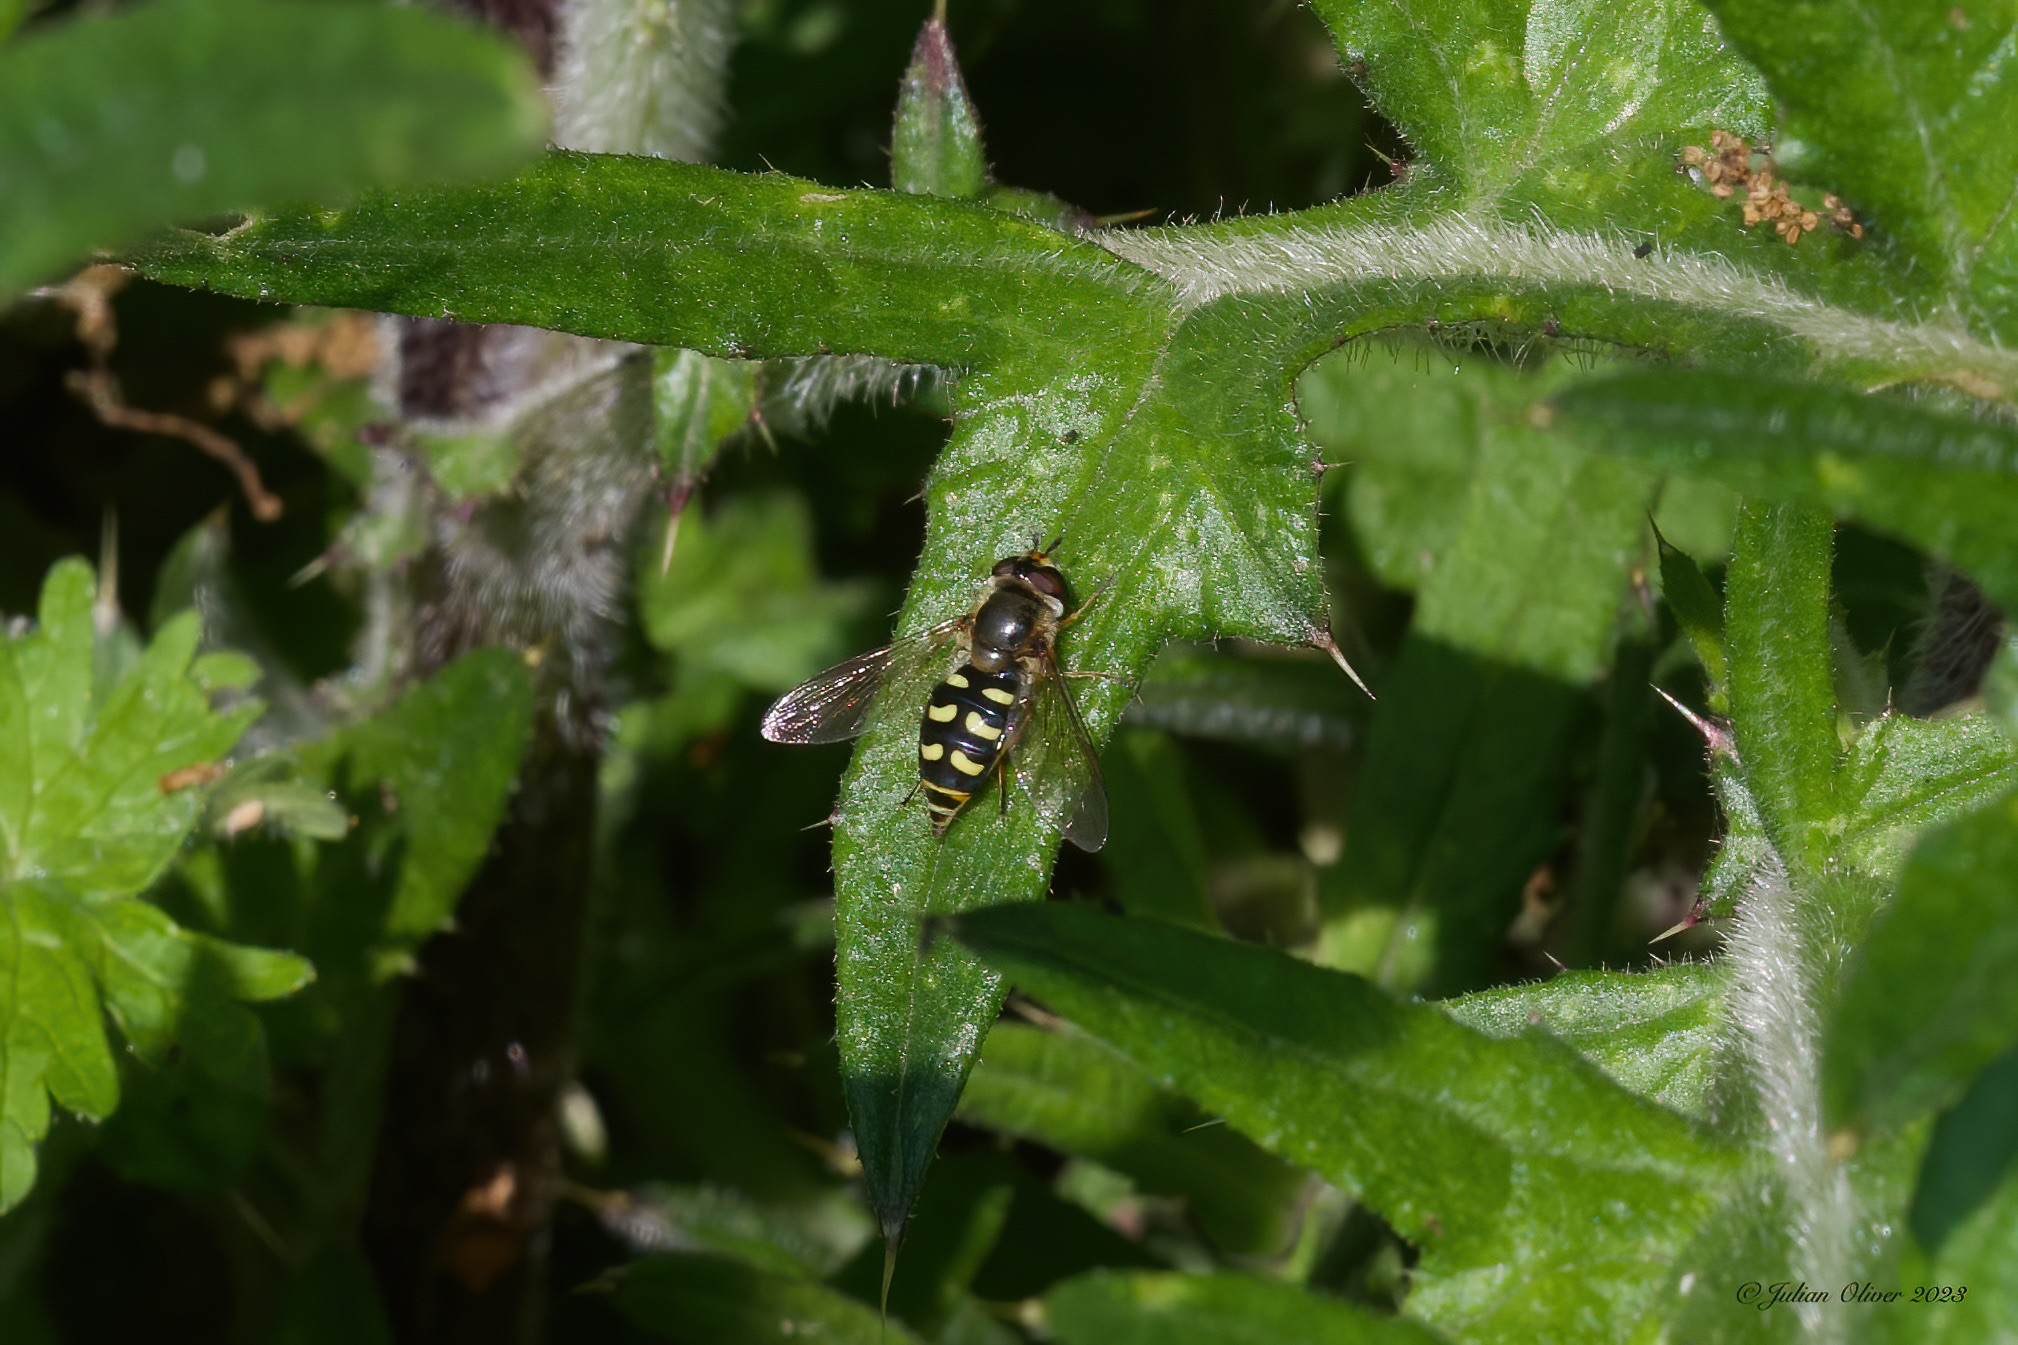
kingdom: Animalia
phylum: Arthropoda
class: Insecta
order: Diptera
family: Syrphidae
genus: Eupeodes
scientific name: Eupeodes luniger
